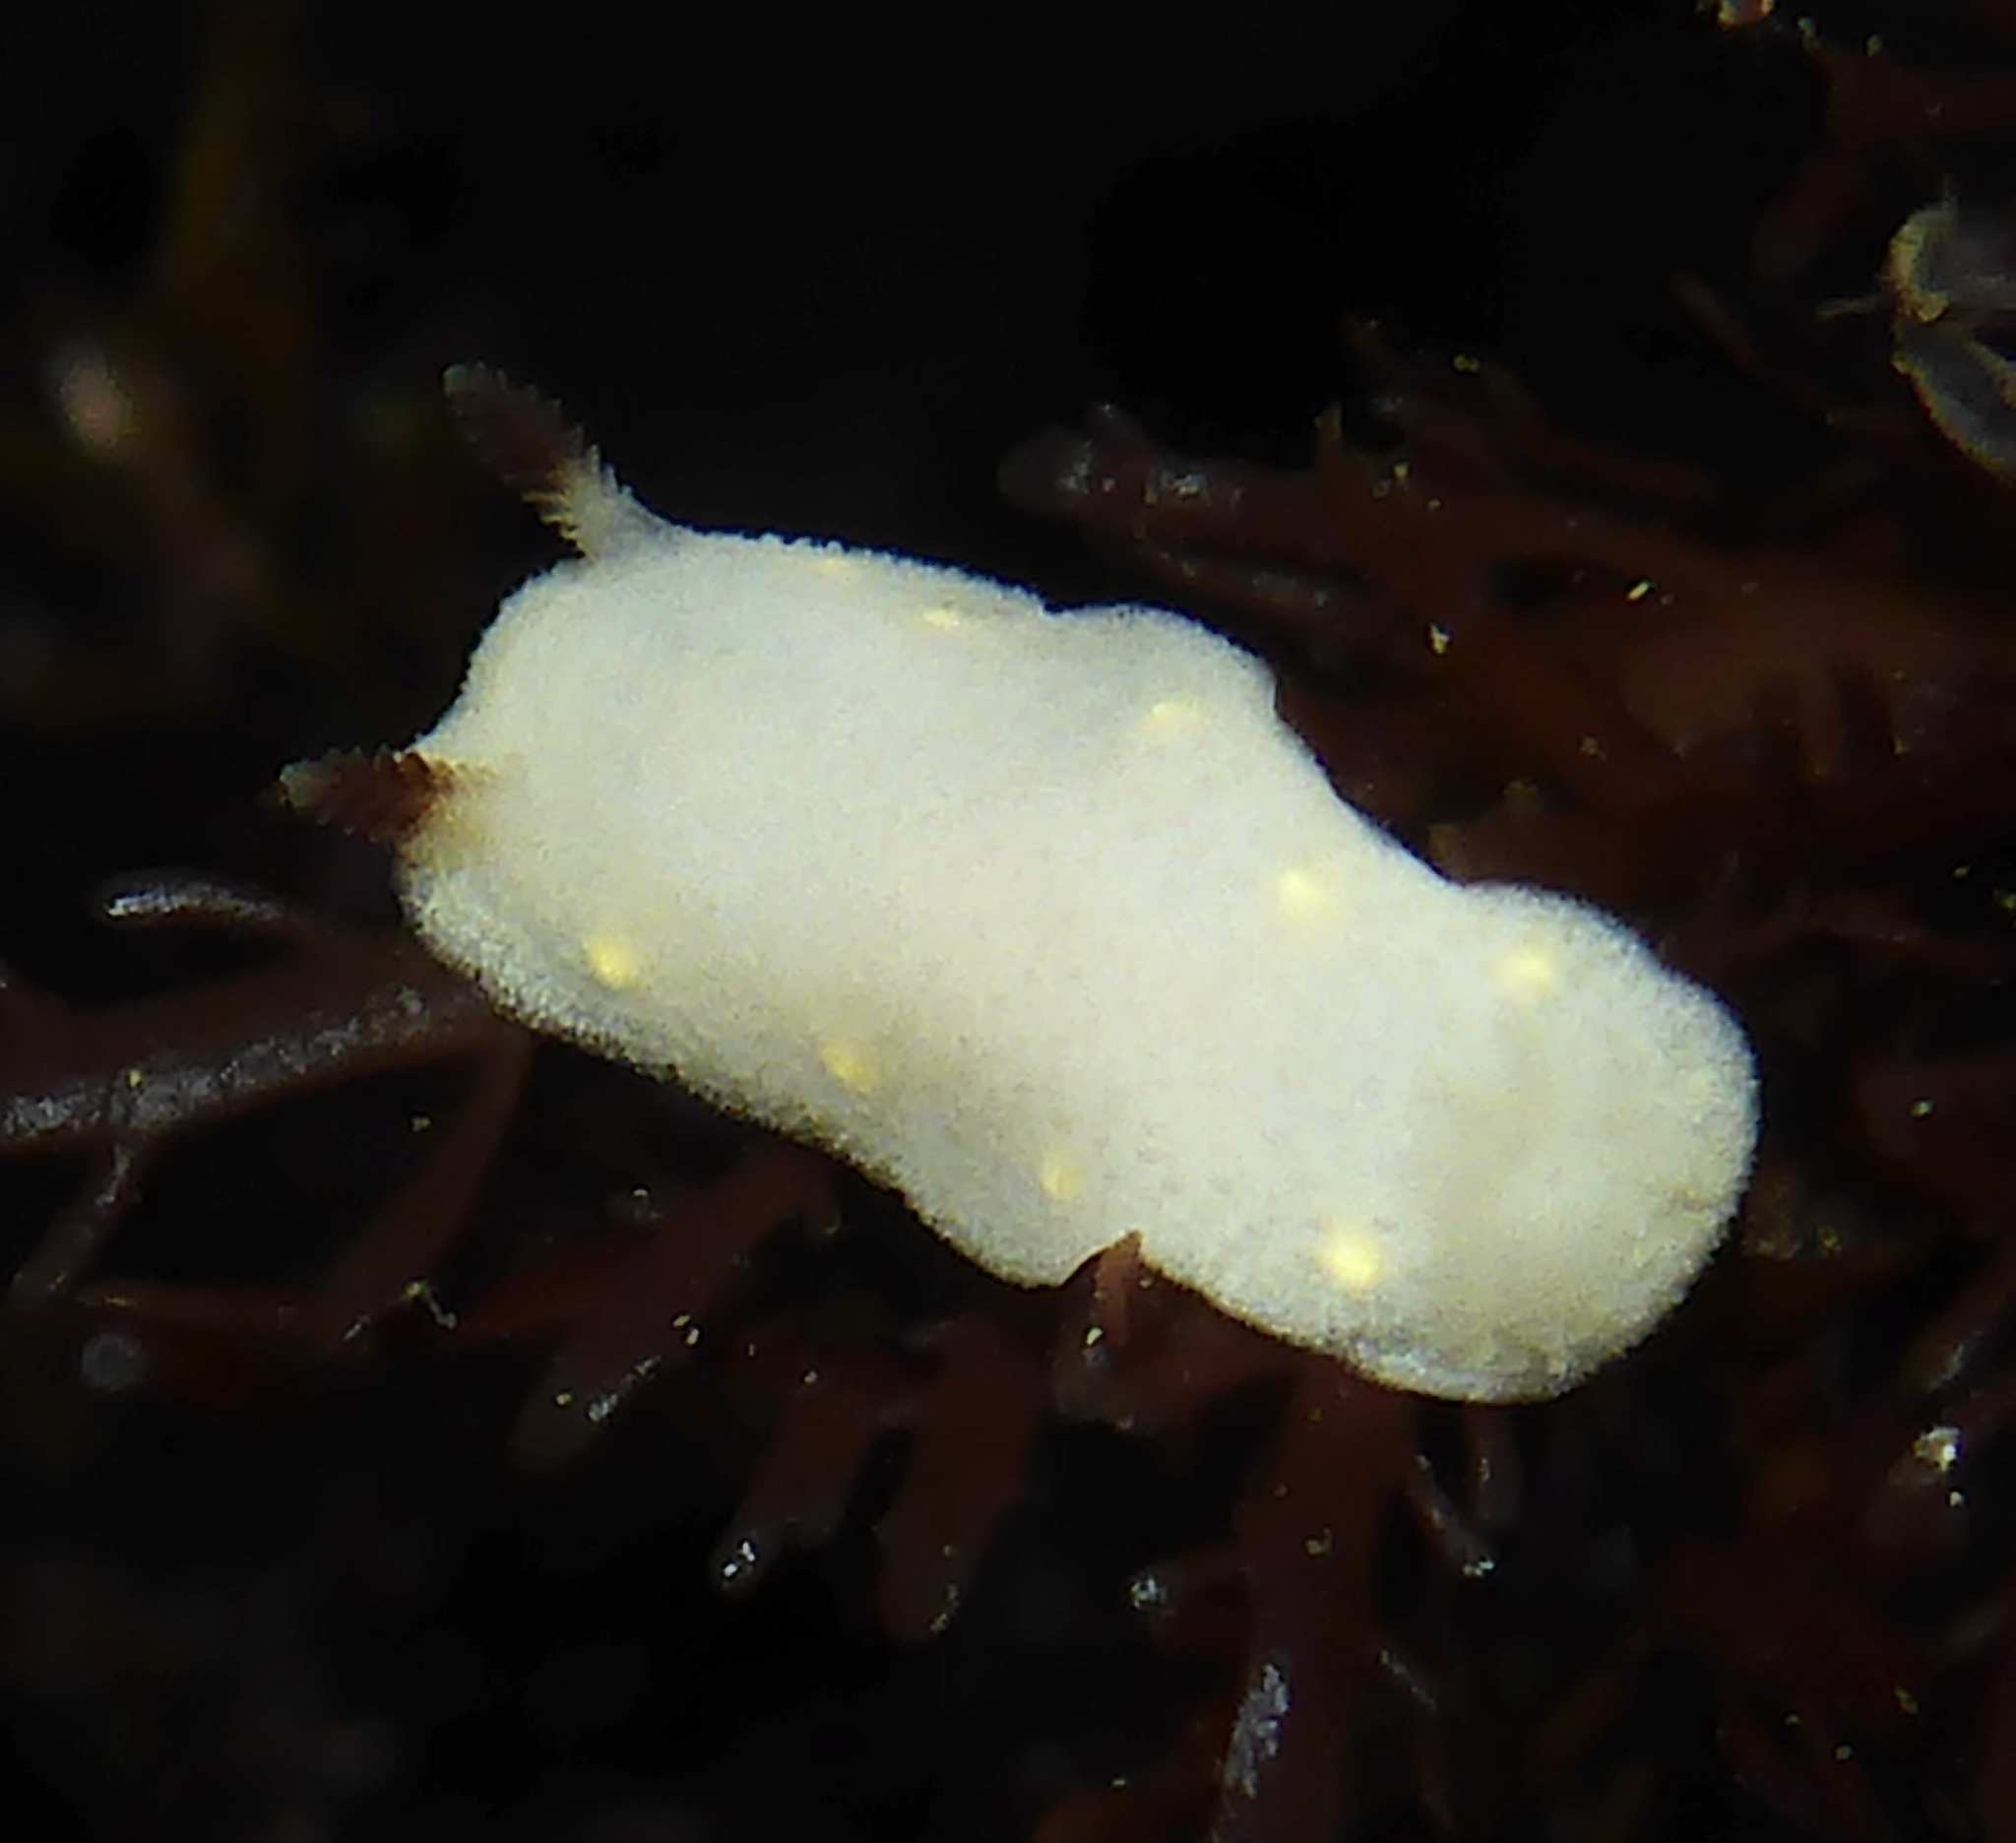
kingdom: Animalia
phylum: Mollusca
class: Gastropoda
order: Nudibranchia
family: Cadlinidae
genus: Cadlina
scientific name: Cadlina flavomaculata
